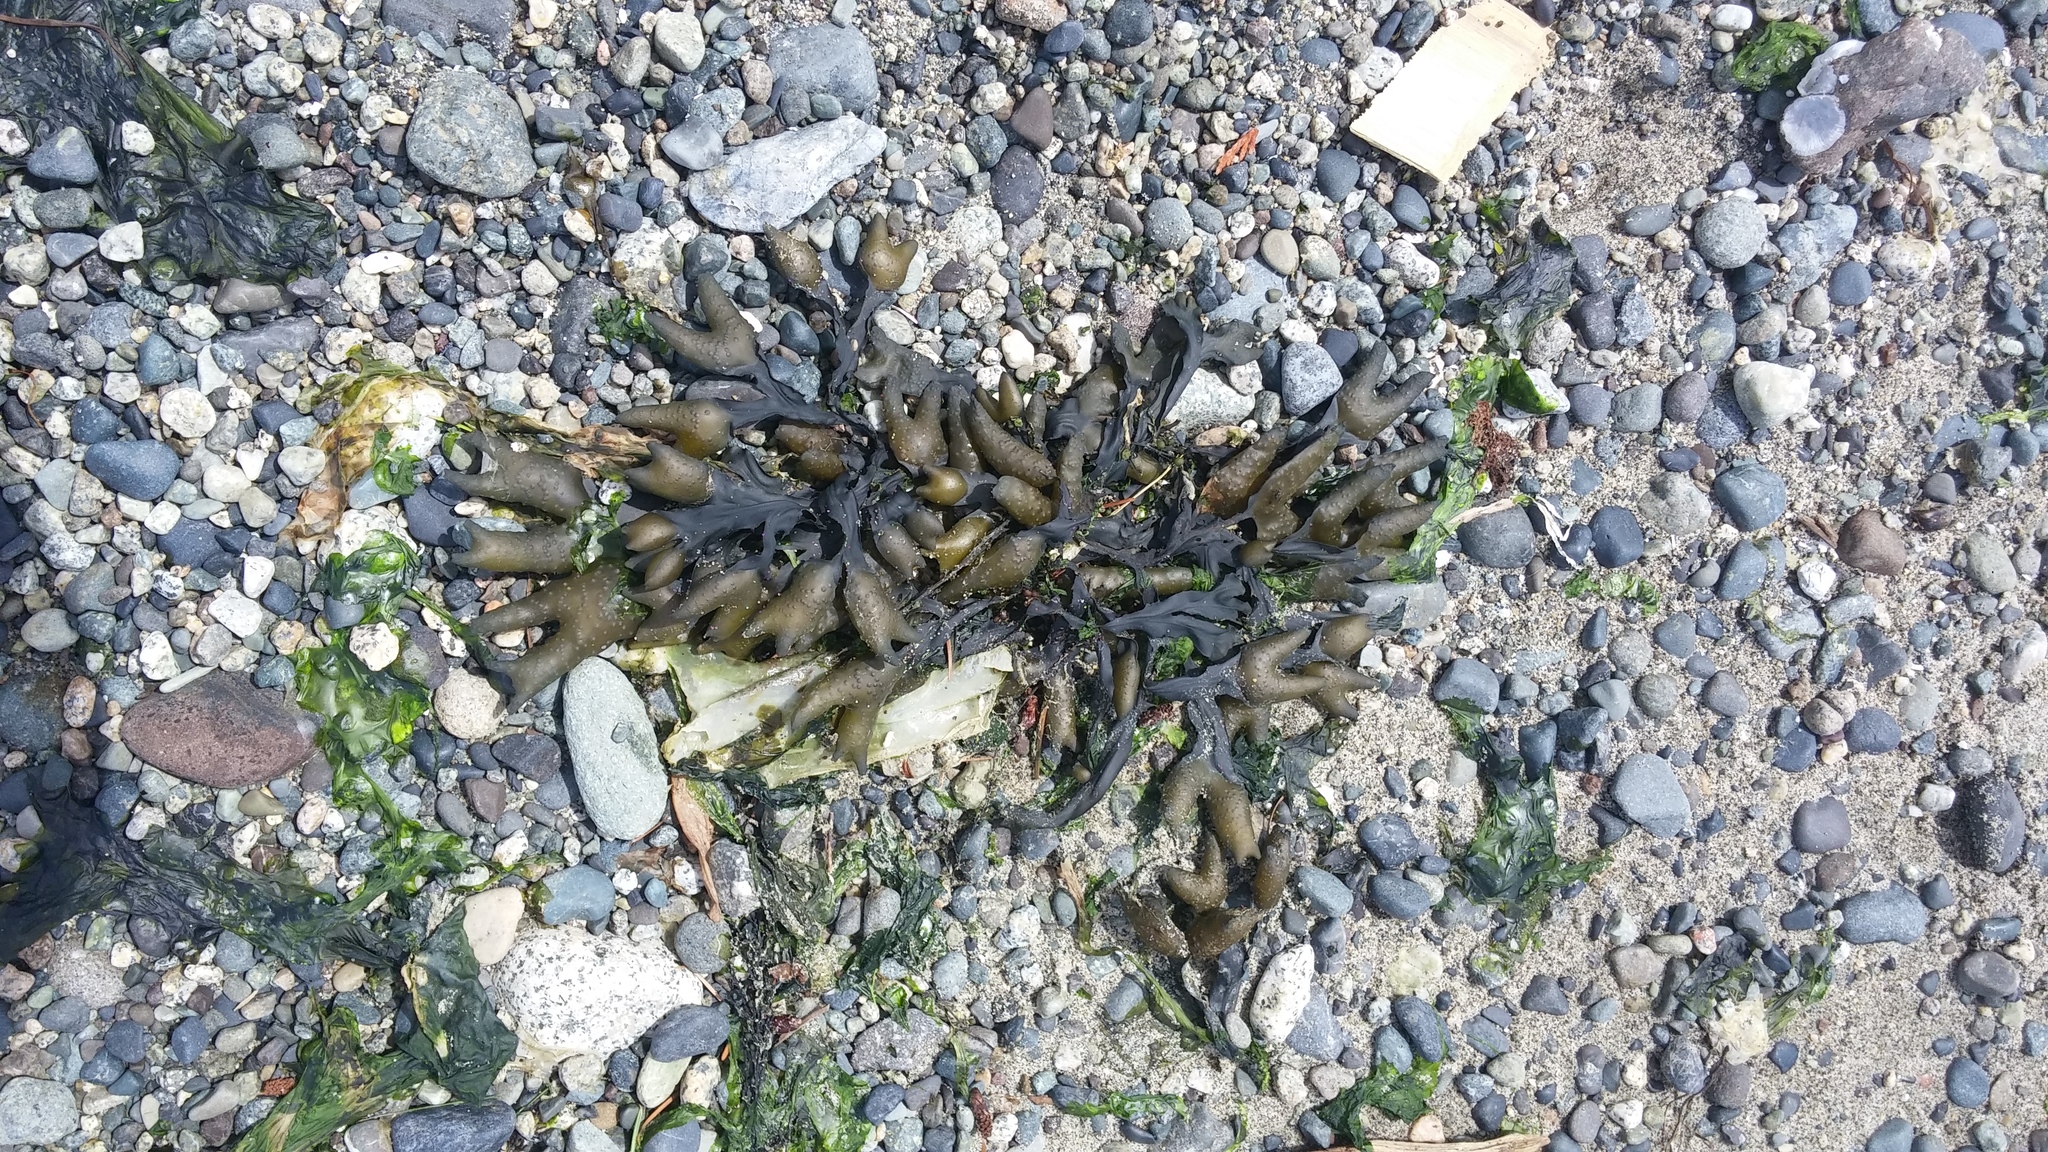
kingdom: Chromista
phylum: Ochrophyta
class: Phaeophyceae
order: Fucales
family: Fucaceae
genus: Fucus
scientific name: Fucus distichus
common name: Rockweed
